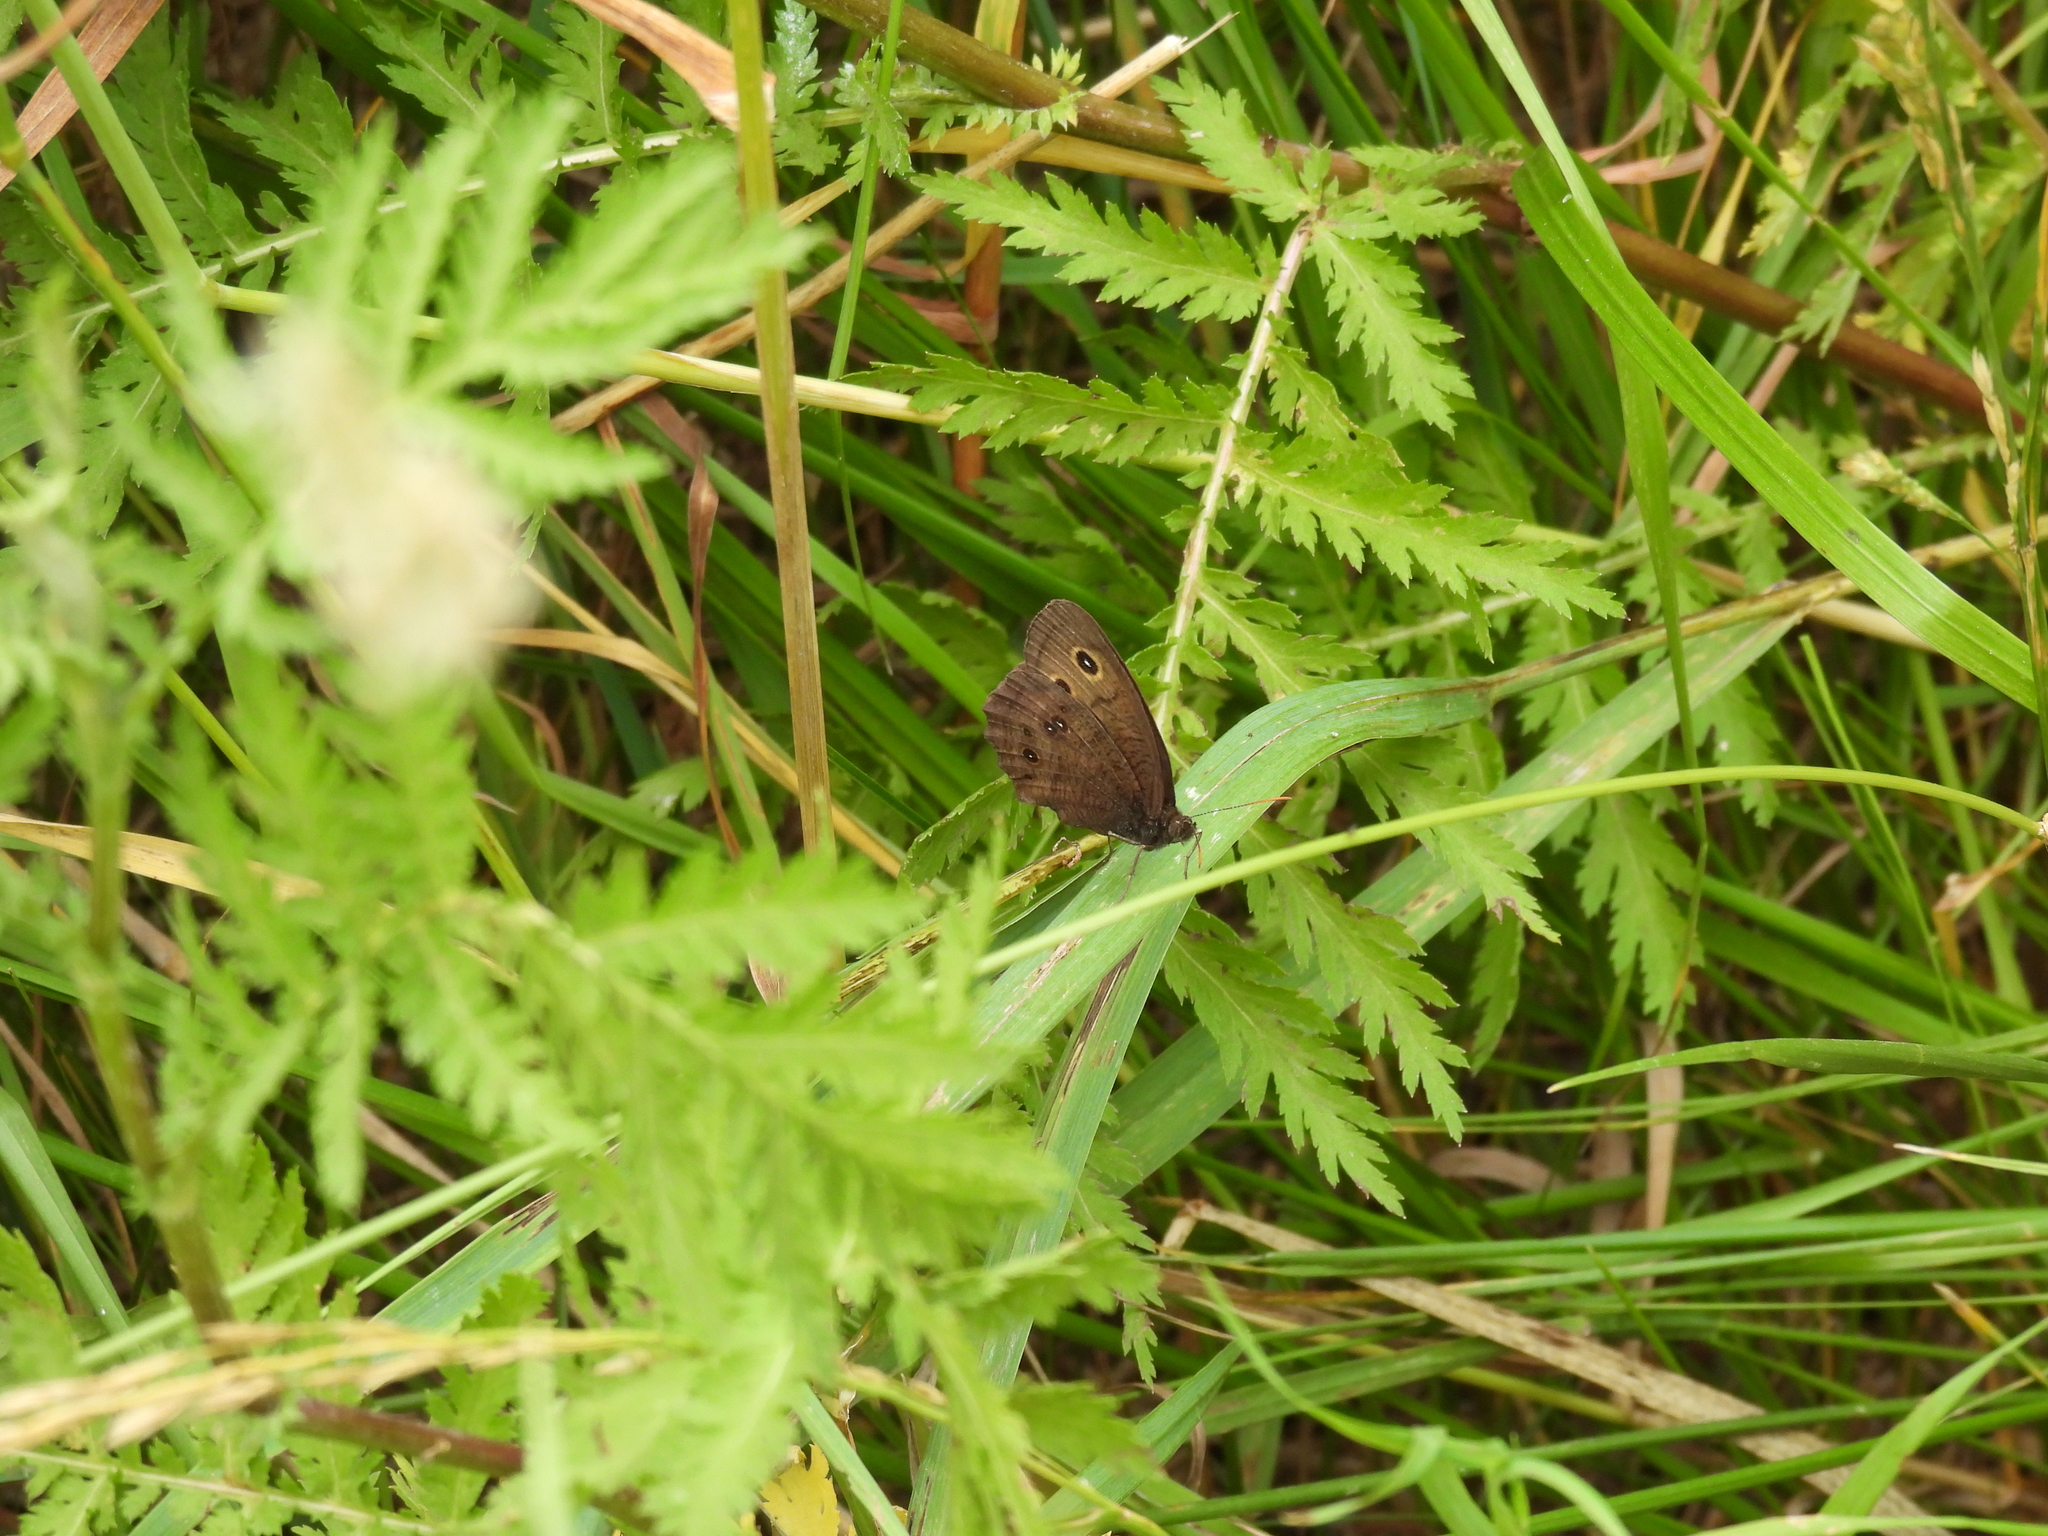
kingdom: Animalia
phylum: Arthropoda
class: Insecta
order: Lepidoptera
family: Nymphalidae
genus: Cercyonis
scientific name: Cercyonis pegala
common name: Common wood-nymph
